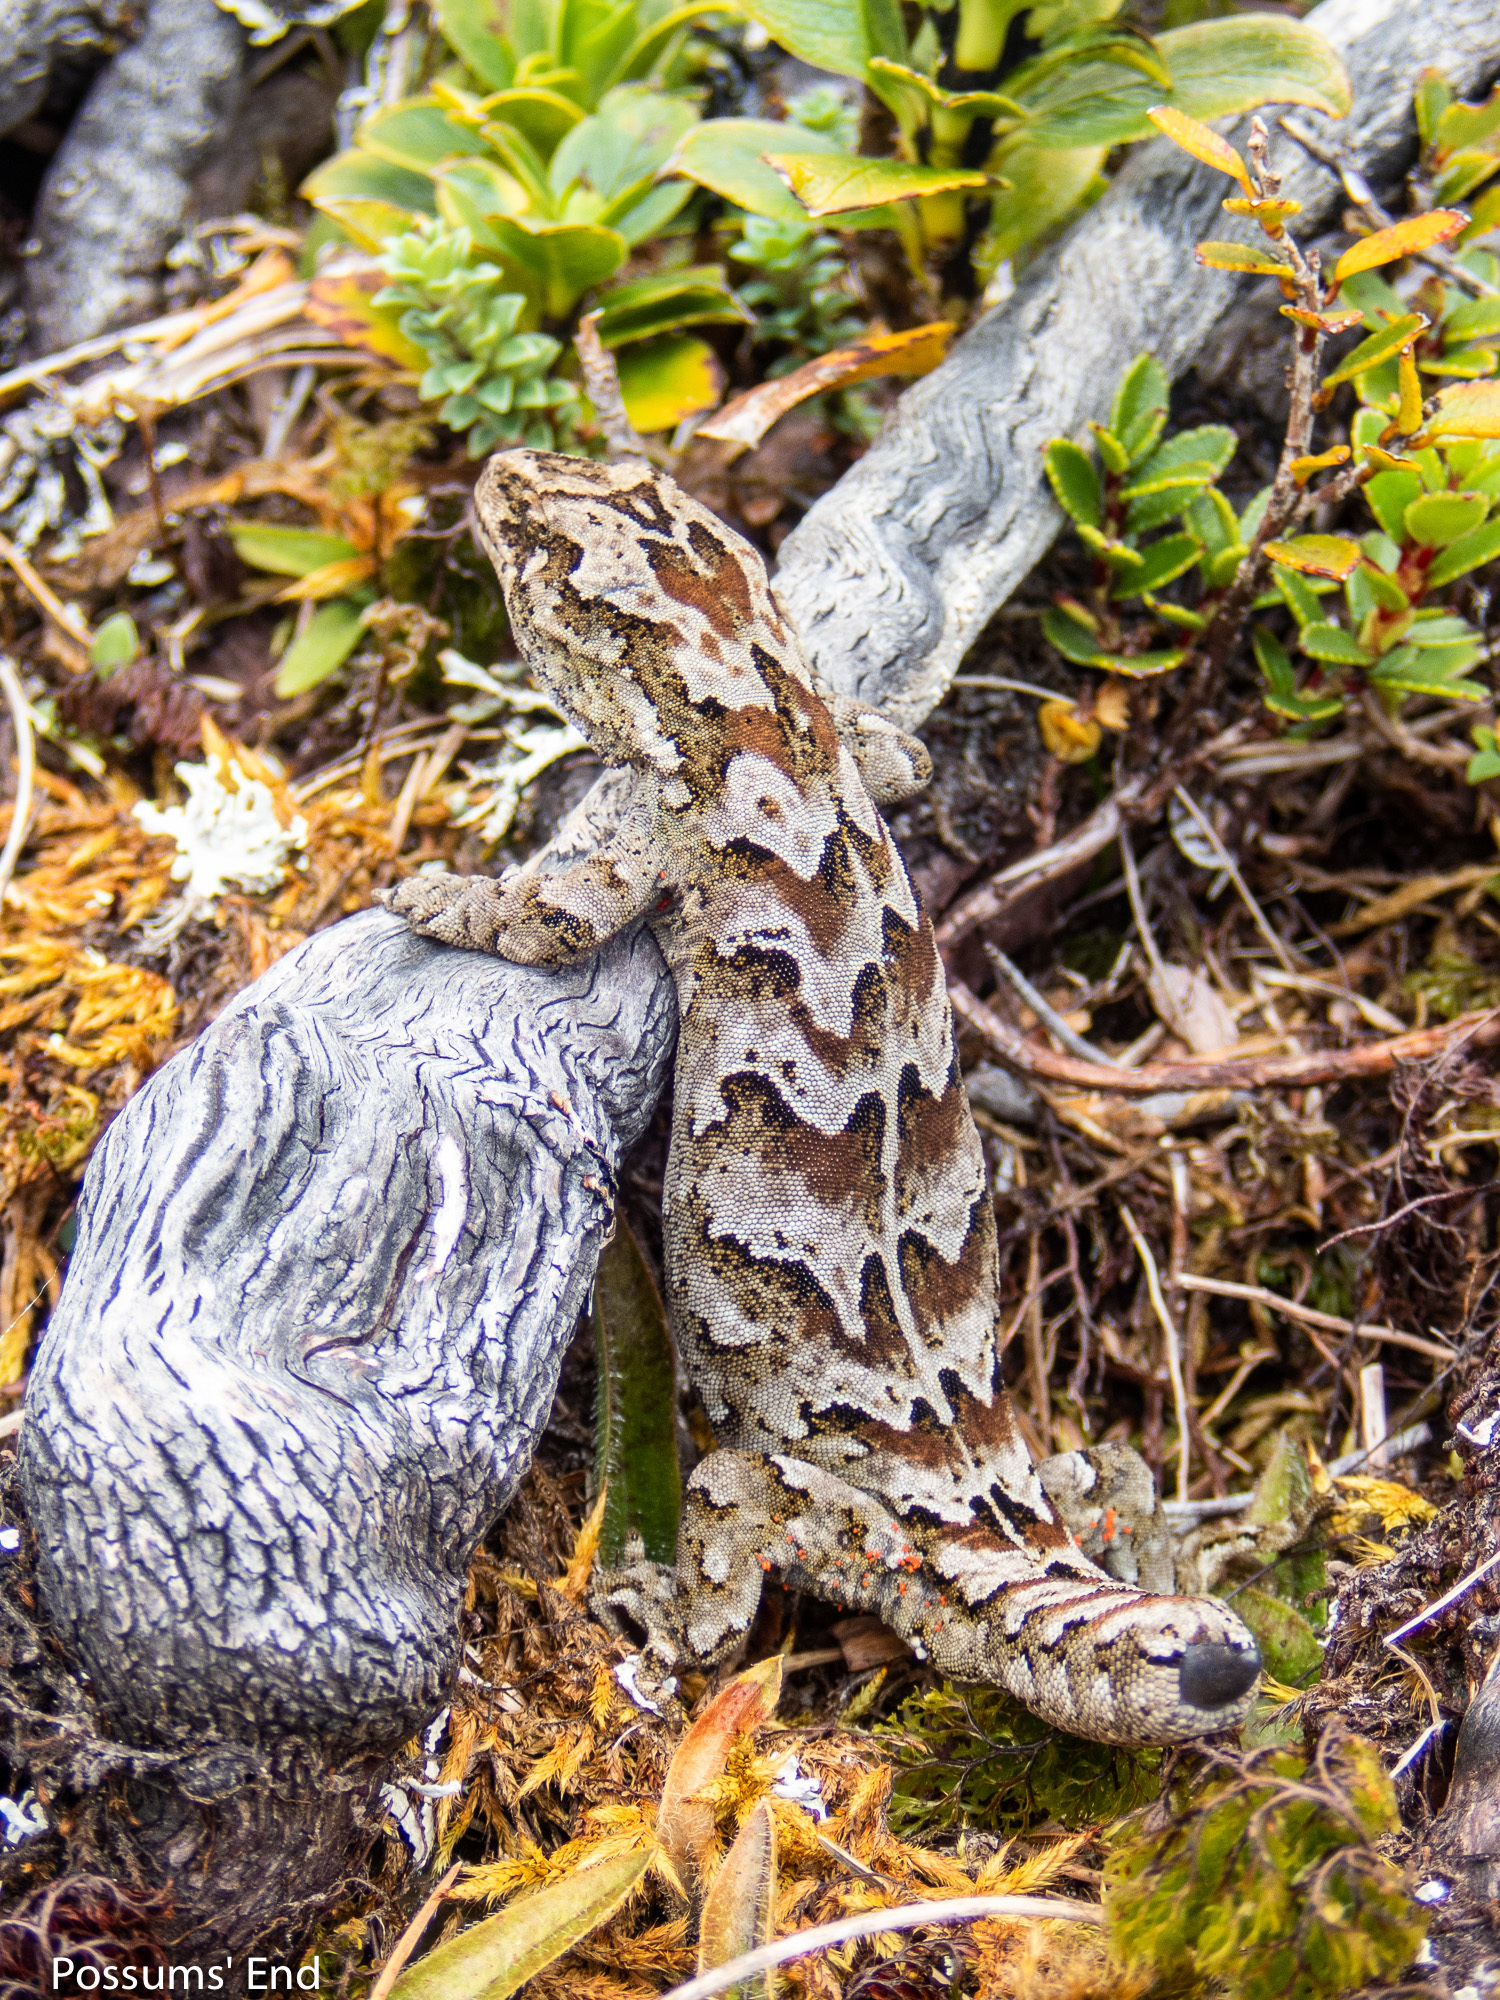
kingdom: Animalia
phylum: Chordata
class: Squamata
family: Diplodactylidae
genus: Mokopirirakau
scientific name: Mokopirirakau
